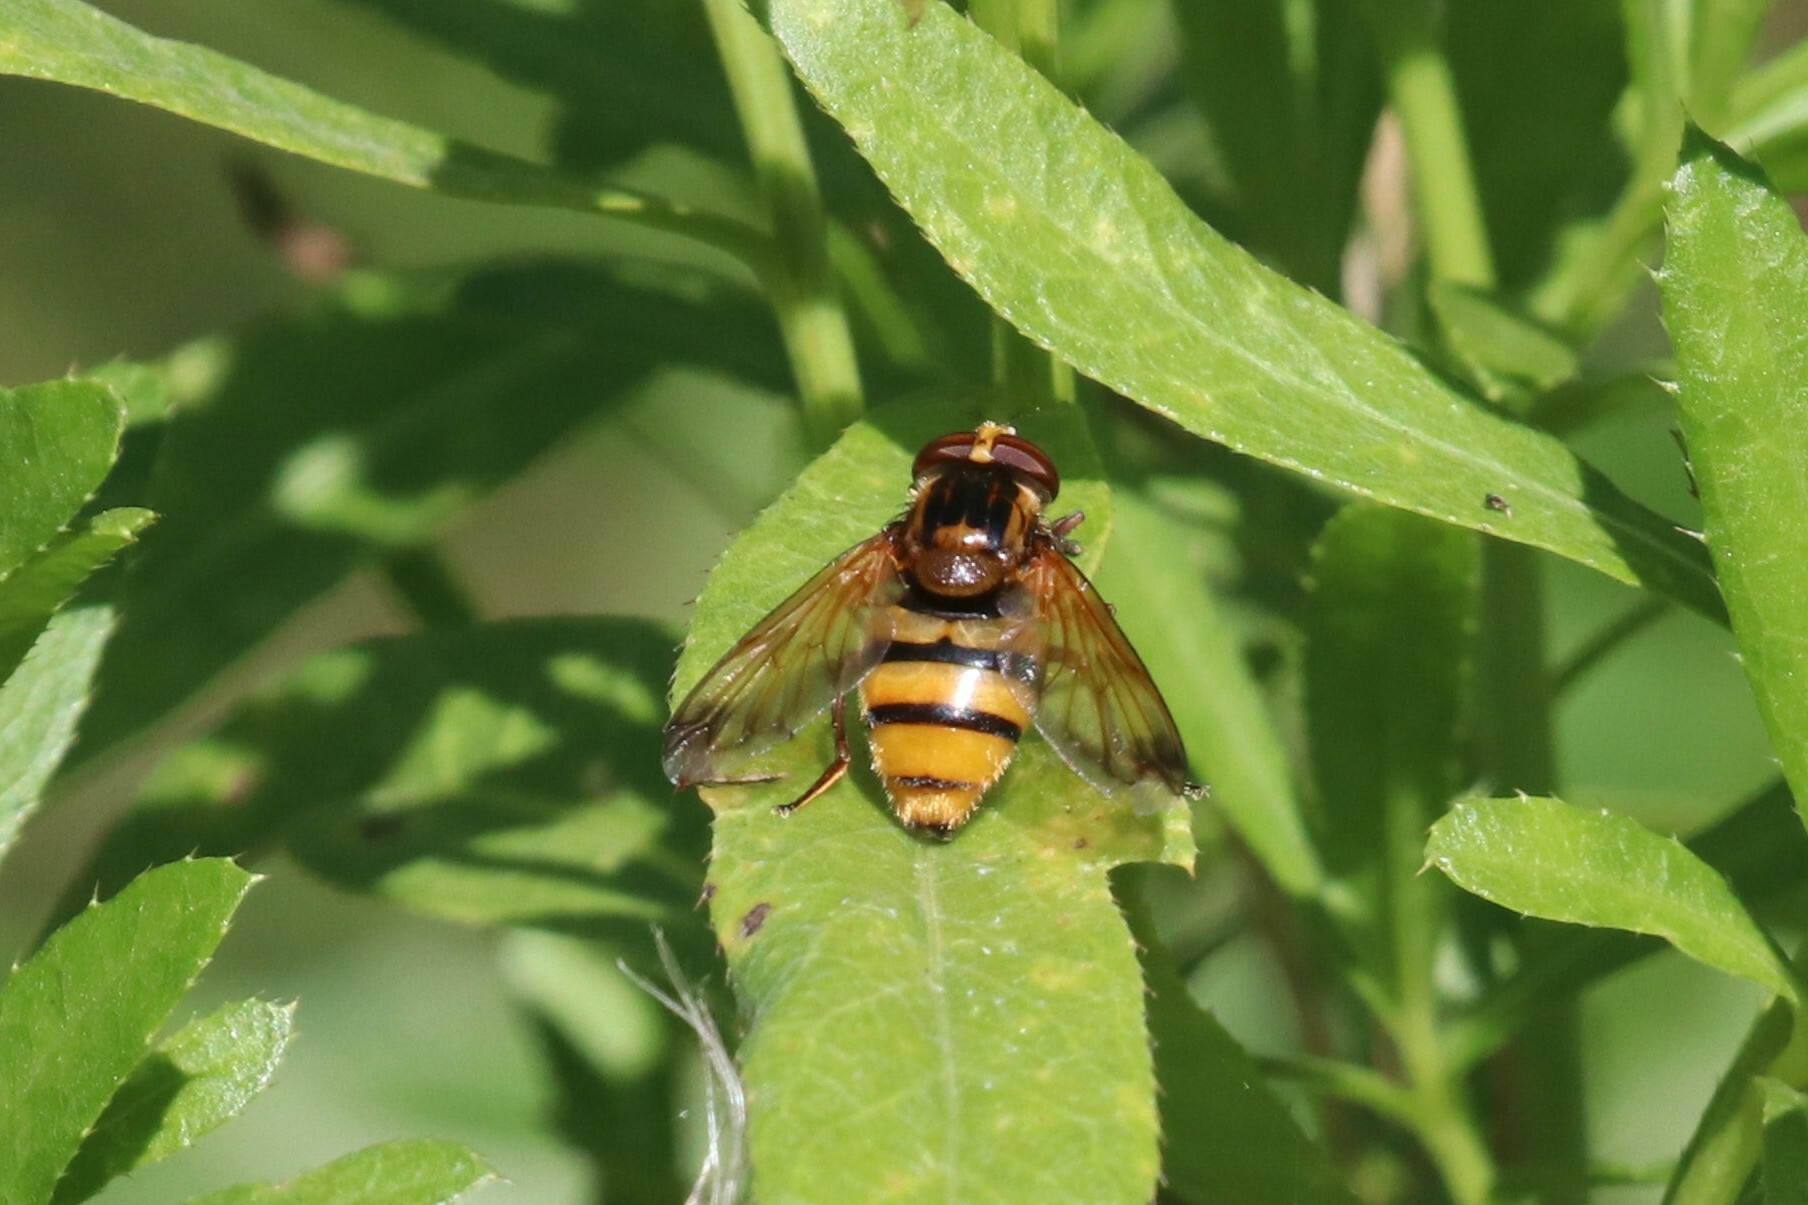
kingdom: Animalia
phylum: Arthropoda
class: Insecta
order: Diptera
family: Syrphidae
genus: Volucella
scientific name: Volucella inanis
